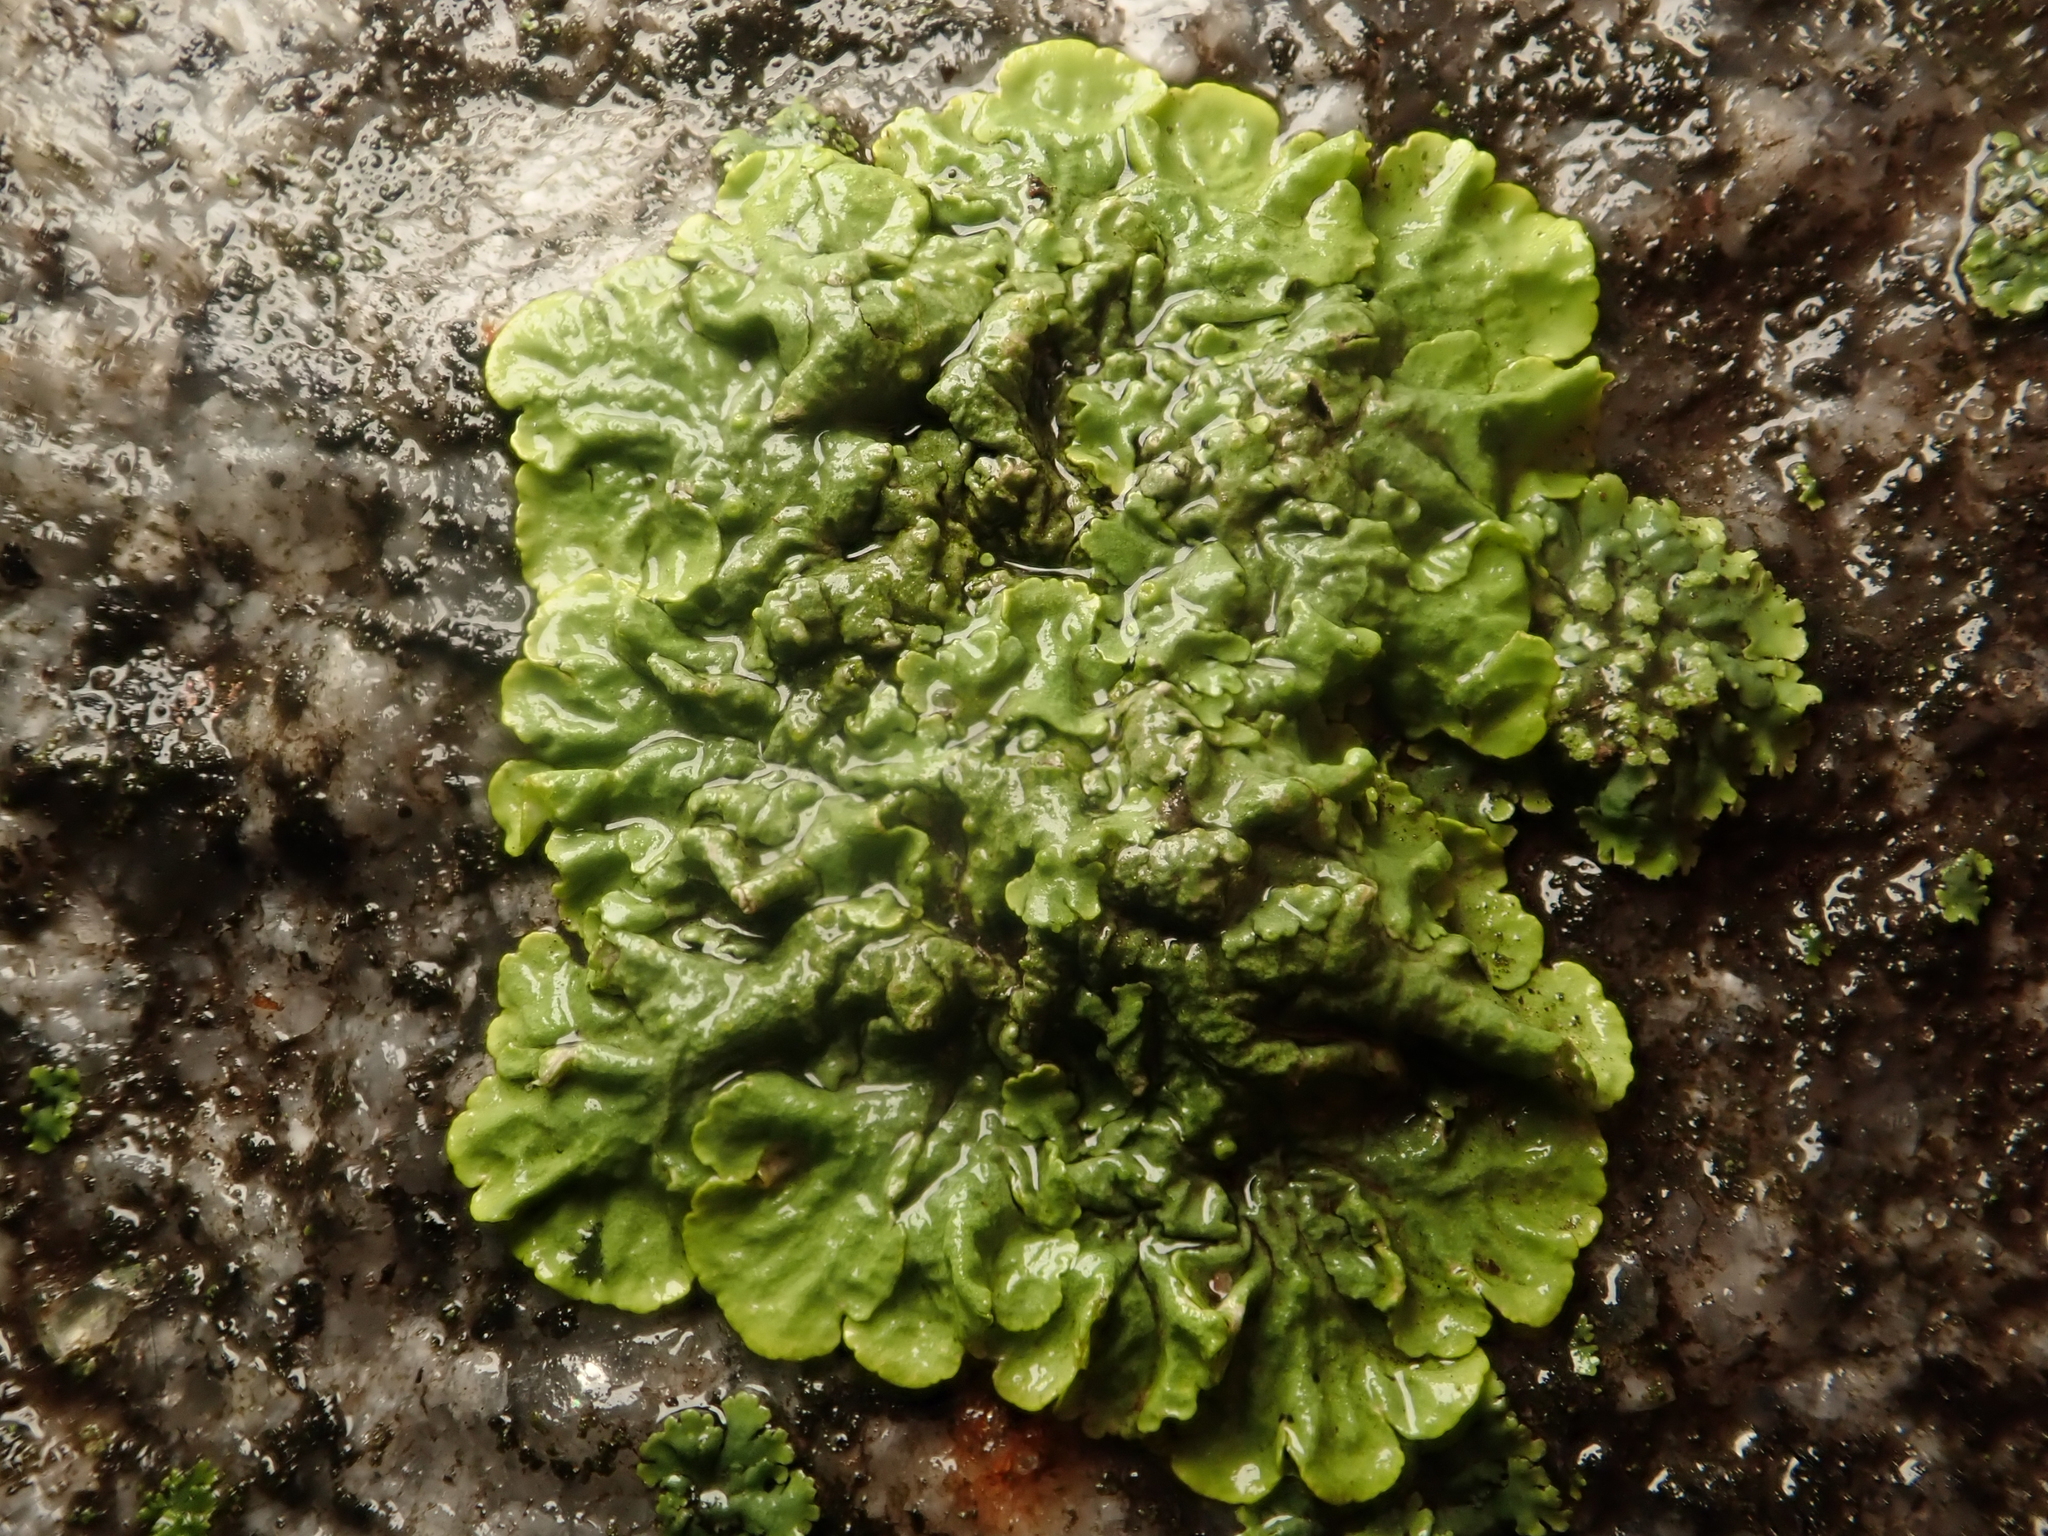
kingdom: Fungi
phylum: Ascomycota
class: Lecanoromycetes
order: Teloschistales
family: Teloschistaceae
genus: Xanthoria
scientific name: Xanthoria parietina
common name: Common orange lichen
